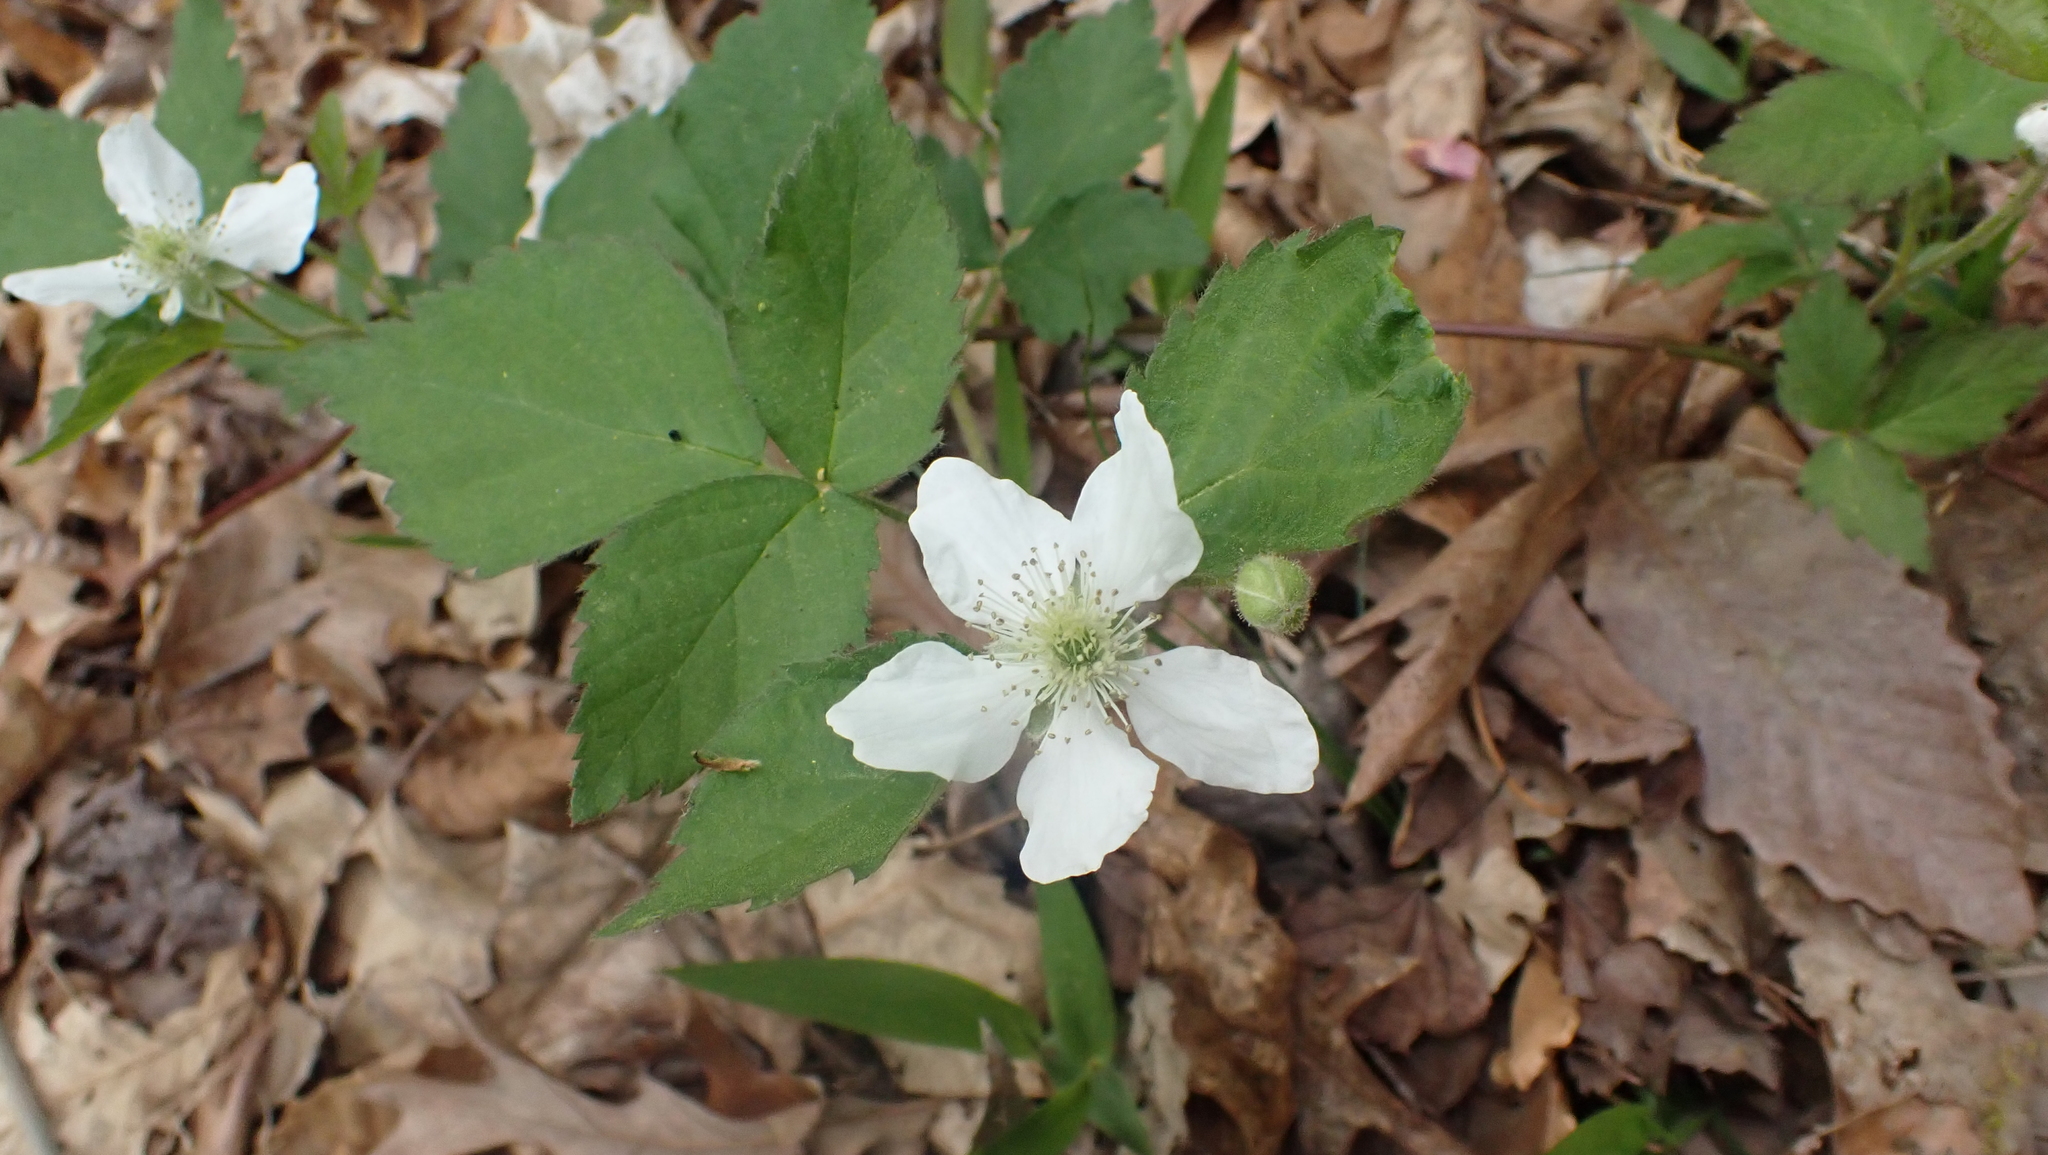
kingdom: Plantae
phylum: Tracheophyta
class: Magnoliopsida
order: Rosales
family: Rosaceae
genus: Rubus
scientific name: Rubus flagellaris
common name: American dewberry
